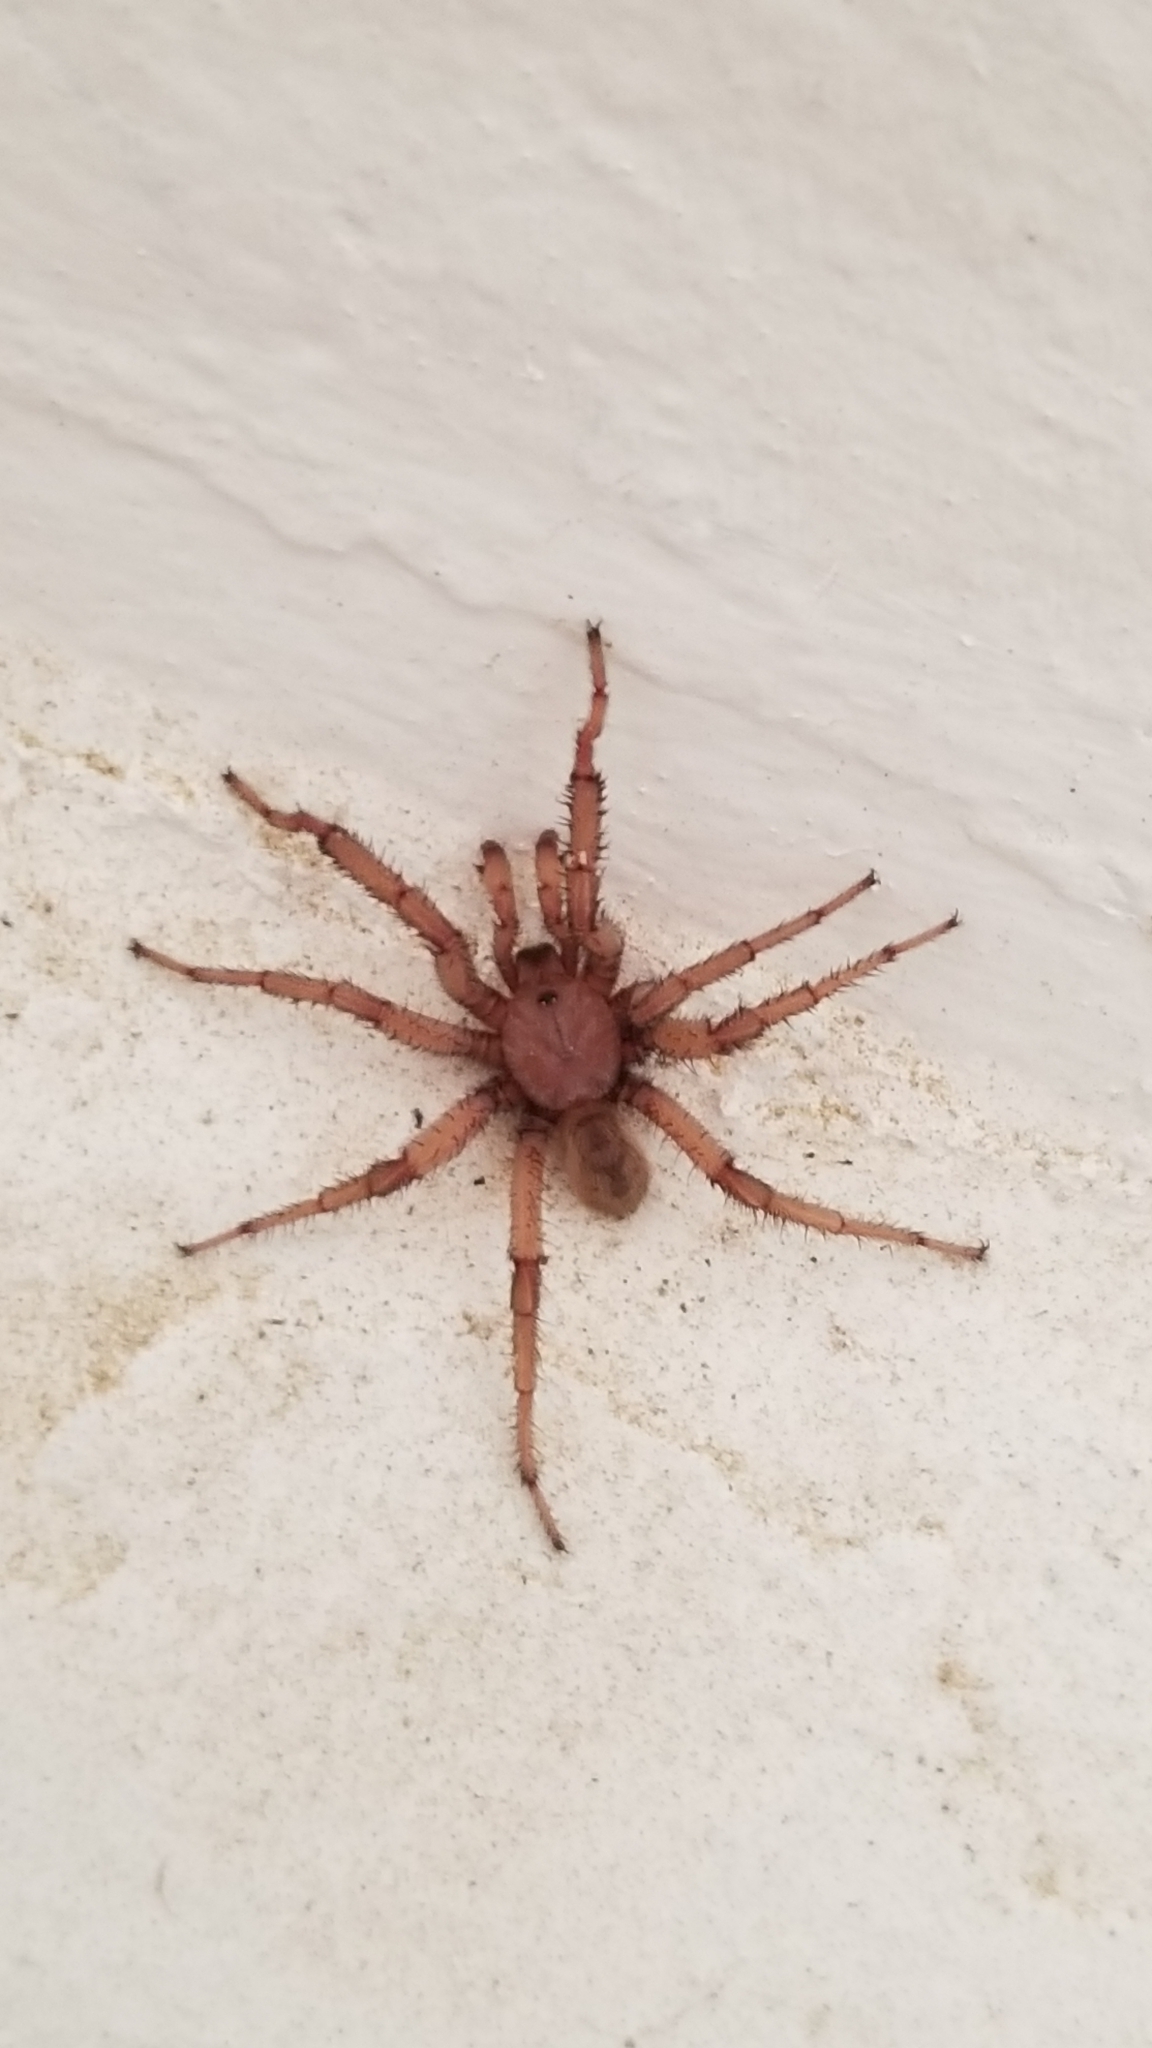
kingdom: Animalia
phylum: Arthropoda
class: Arachnida
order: Araneae
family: Euctenizidae
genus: Aptostichus
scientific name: Aptostichus simus
